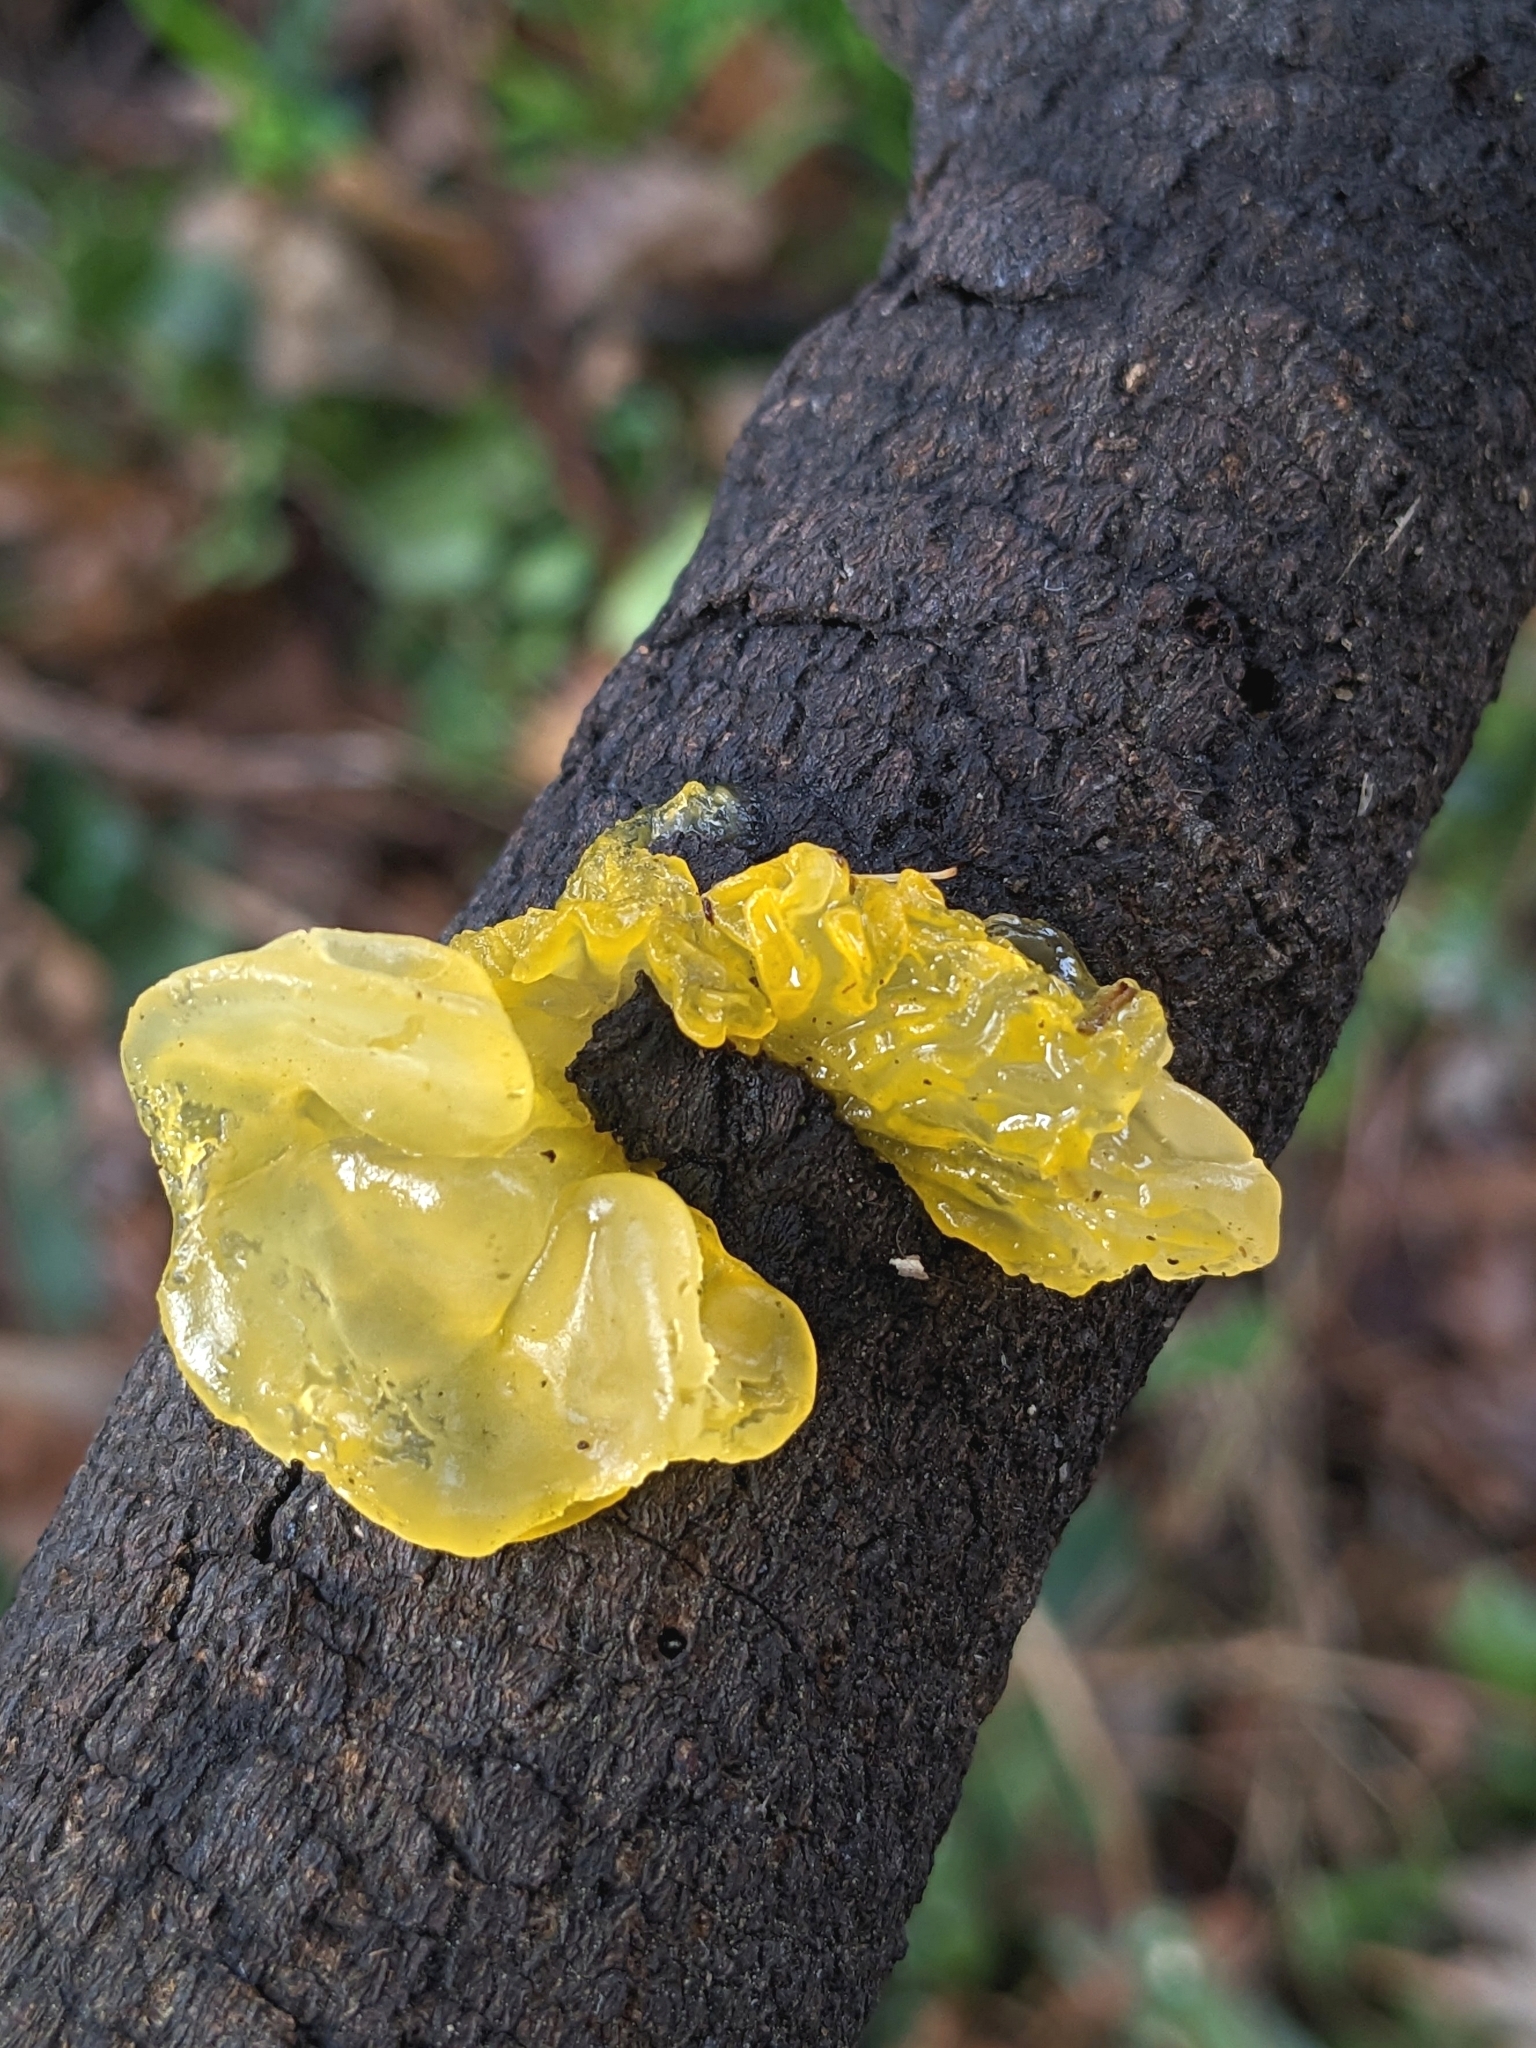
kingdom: Fungi
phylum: Basidiomycota
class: Tremellomycetes
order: Tremellales
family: Tremellaceae
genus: Tremella
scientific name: Tremella mesenterica
